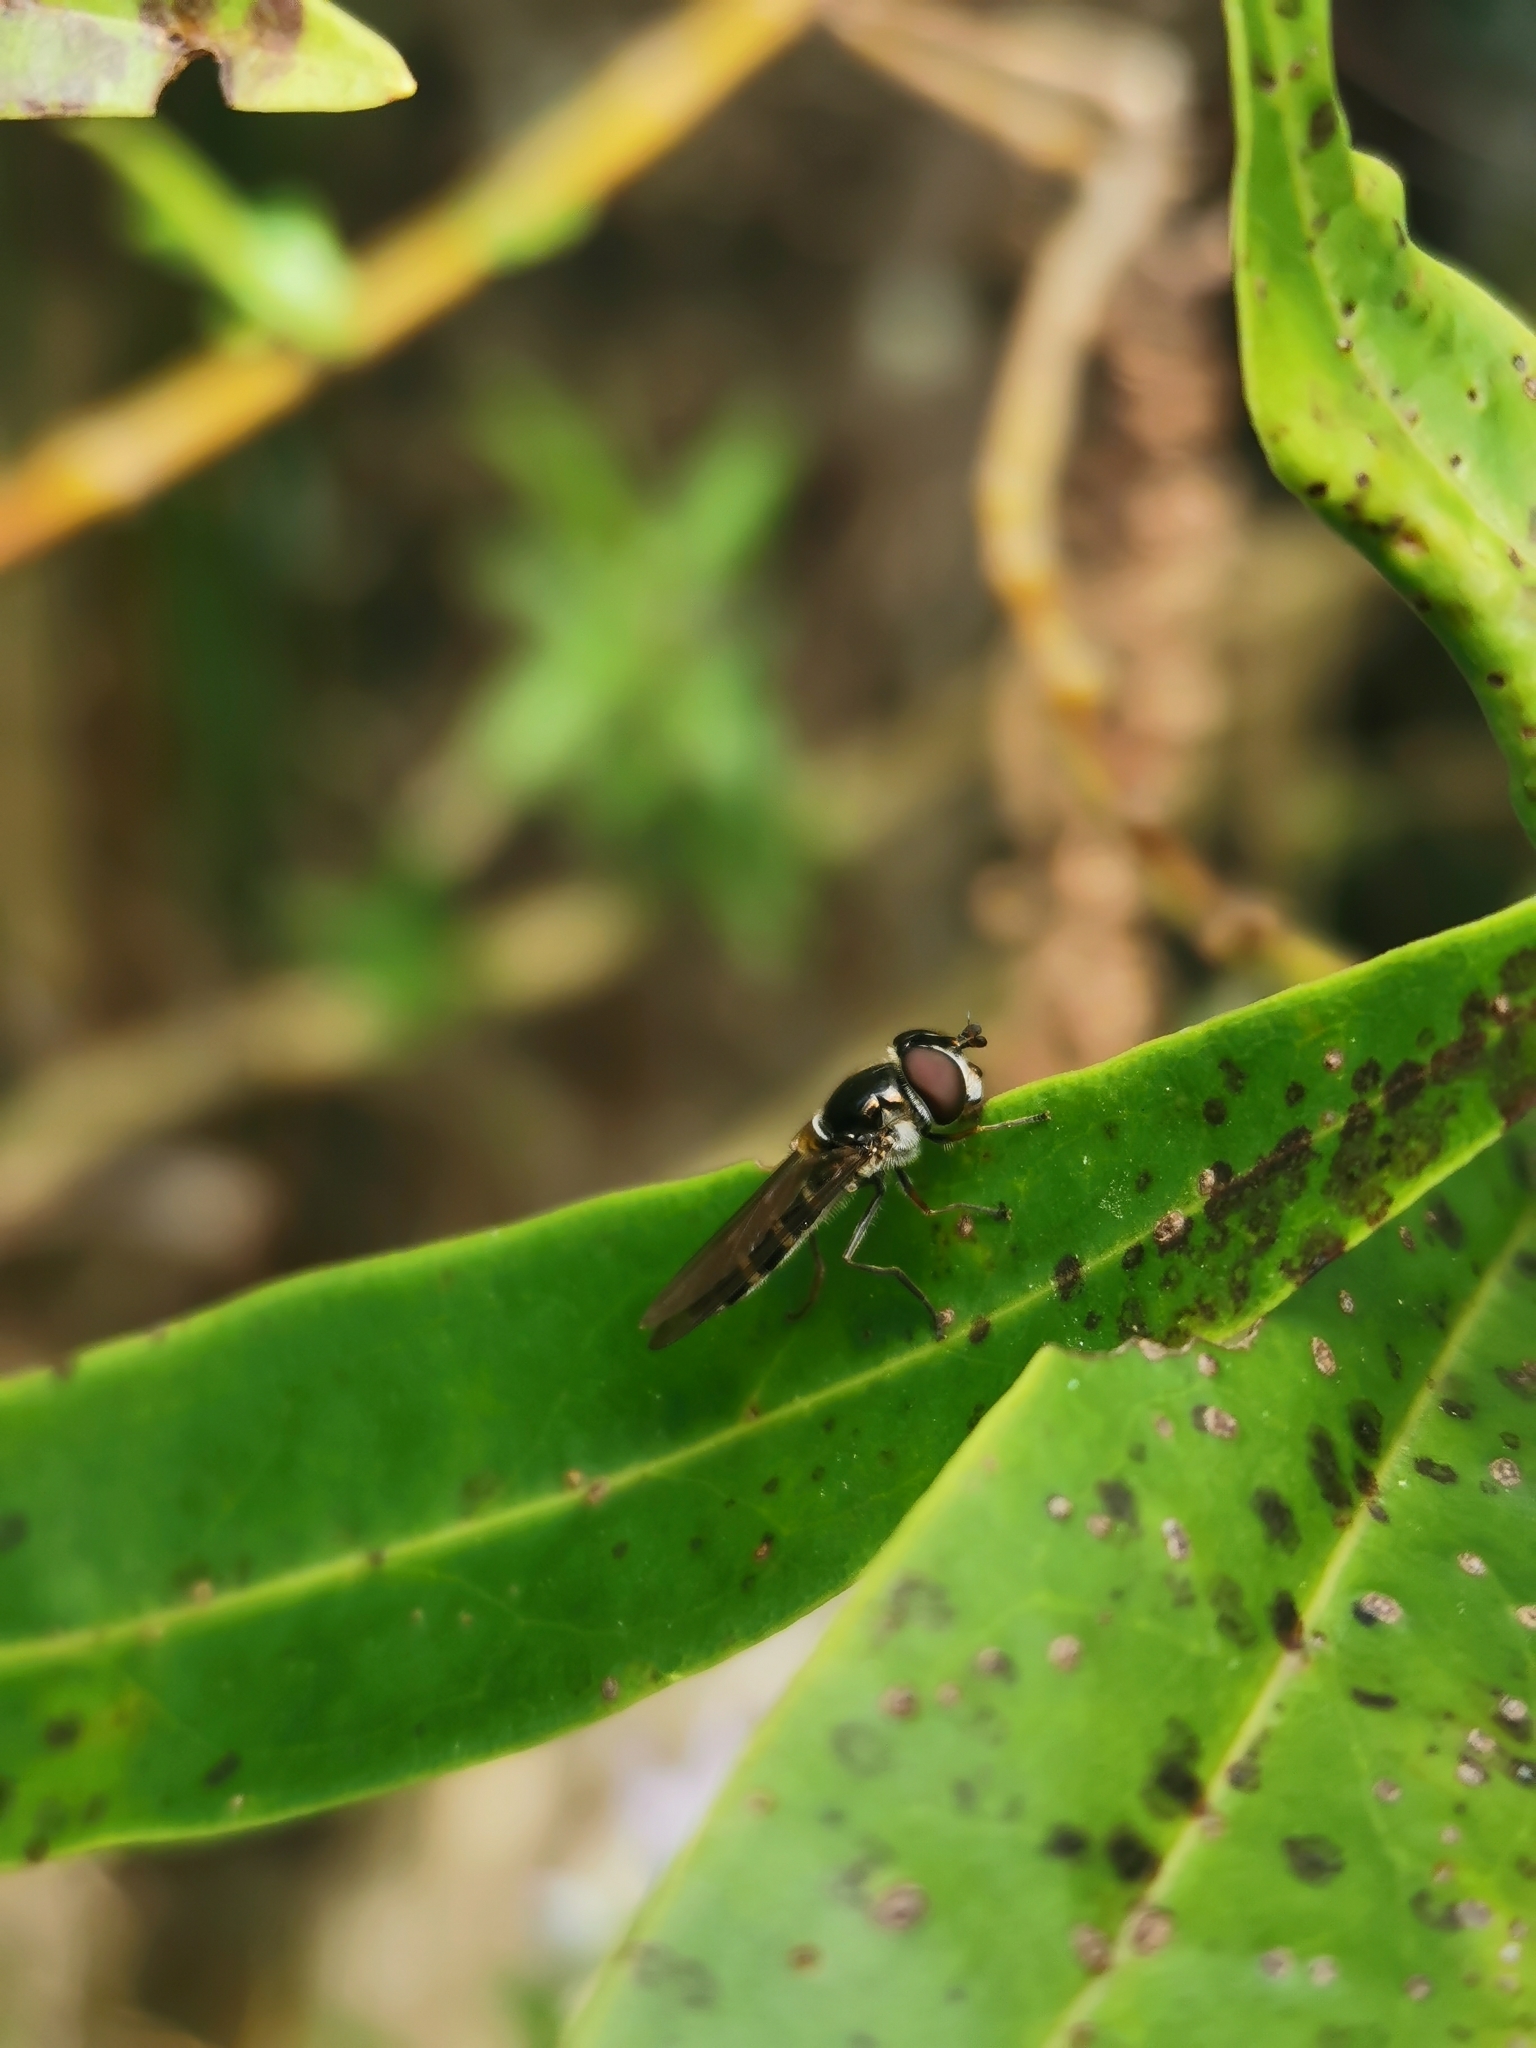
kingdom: Animalia
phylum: Arthropoda
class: Insecta
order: Diptera
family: Syrphidae
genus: Melangyna
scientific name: Melangyna novaezelandiae
